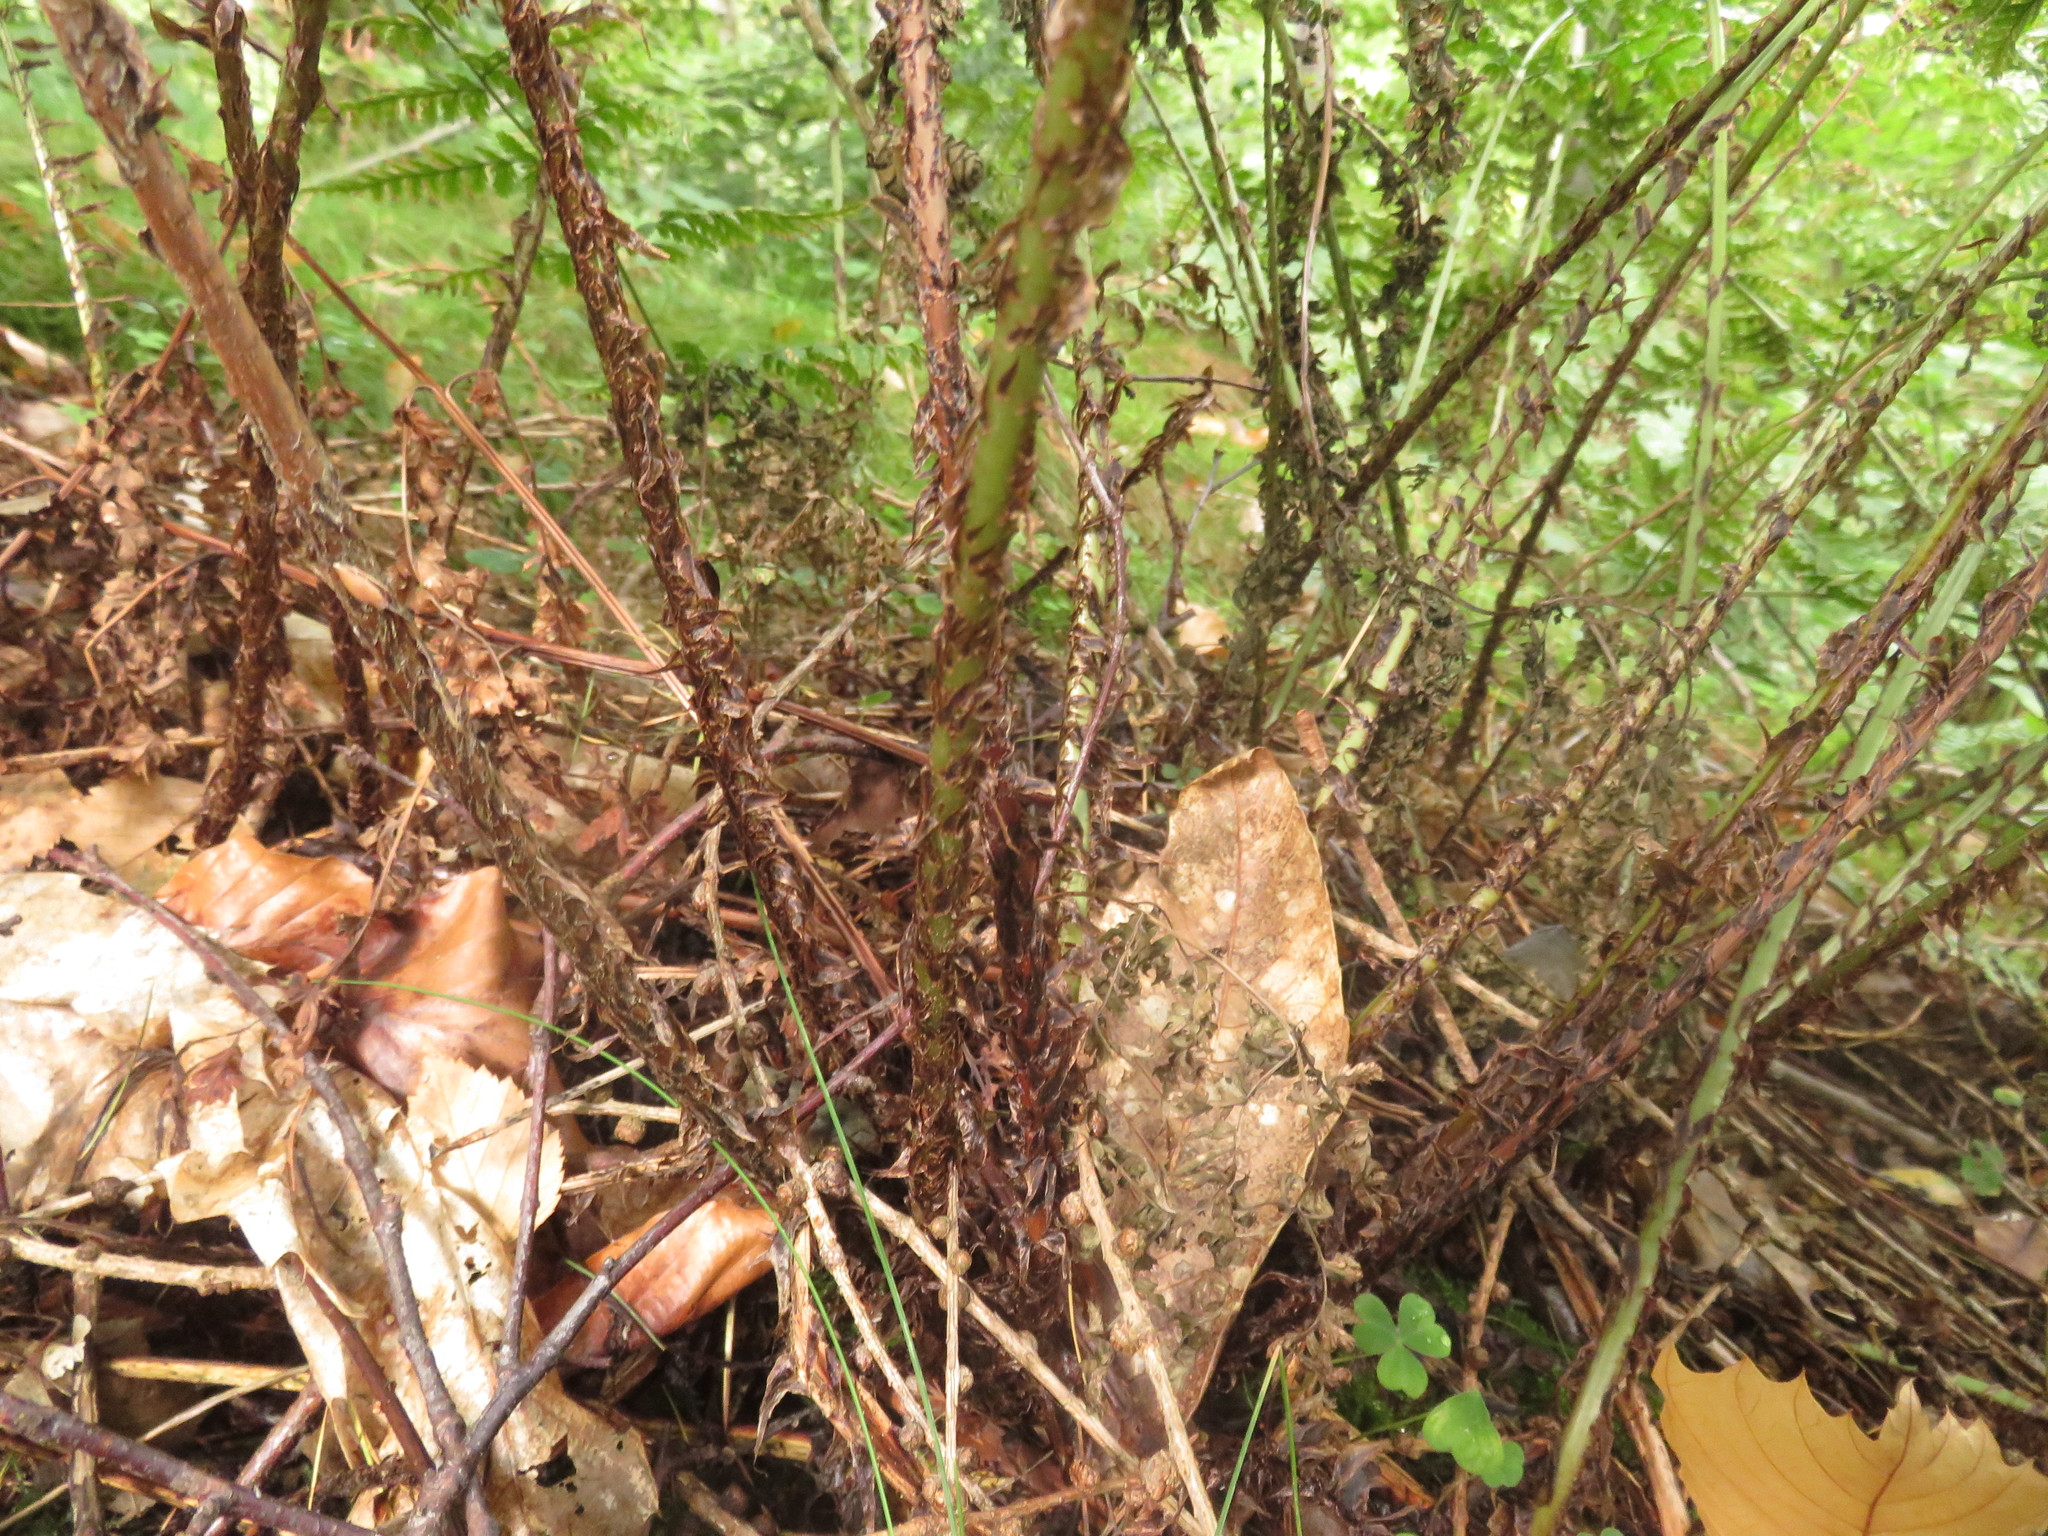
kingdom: Plantae
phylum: Tracheophyta
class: Polypodiopsida
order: Polypodiales
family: Dryopteridaceae
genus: Dryopteris
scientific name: Dryopteris dilatata
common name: Broad buckler-fern
